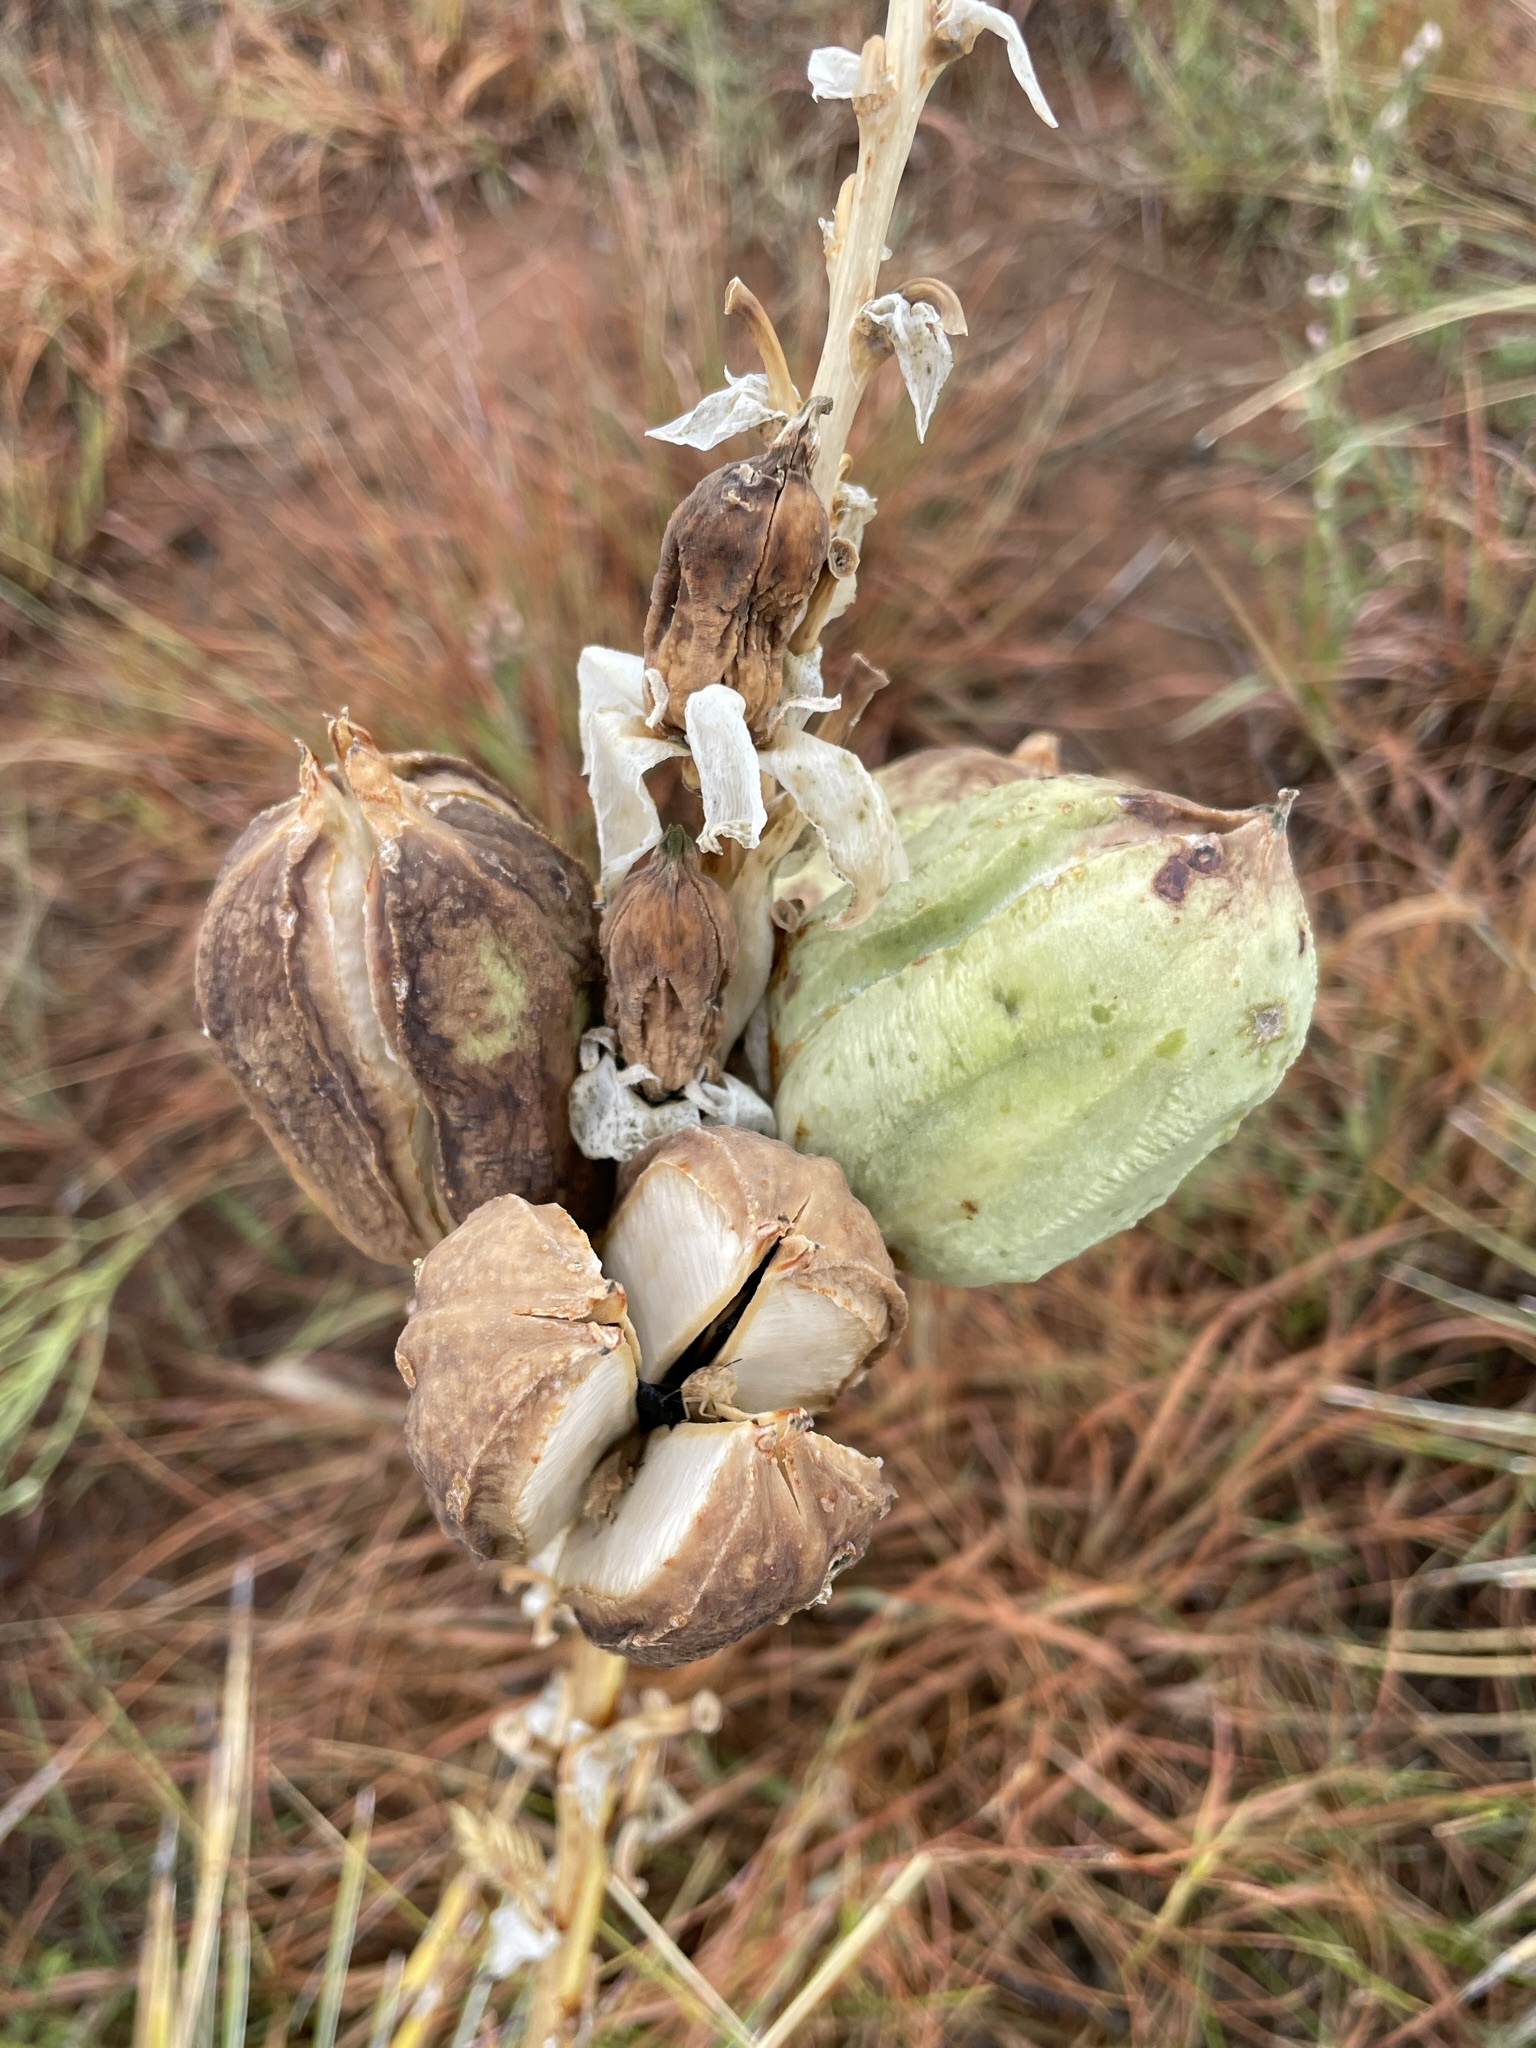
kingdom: Plantae
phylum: Tracheophyta
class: Liliopsida
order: Asparagales
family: Asparagaceae
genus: Yucca
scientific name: Yucca glauca
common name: Great plains yucca
